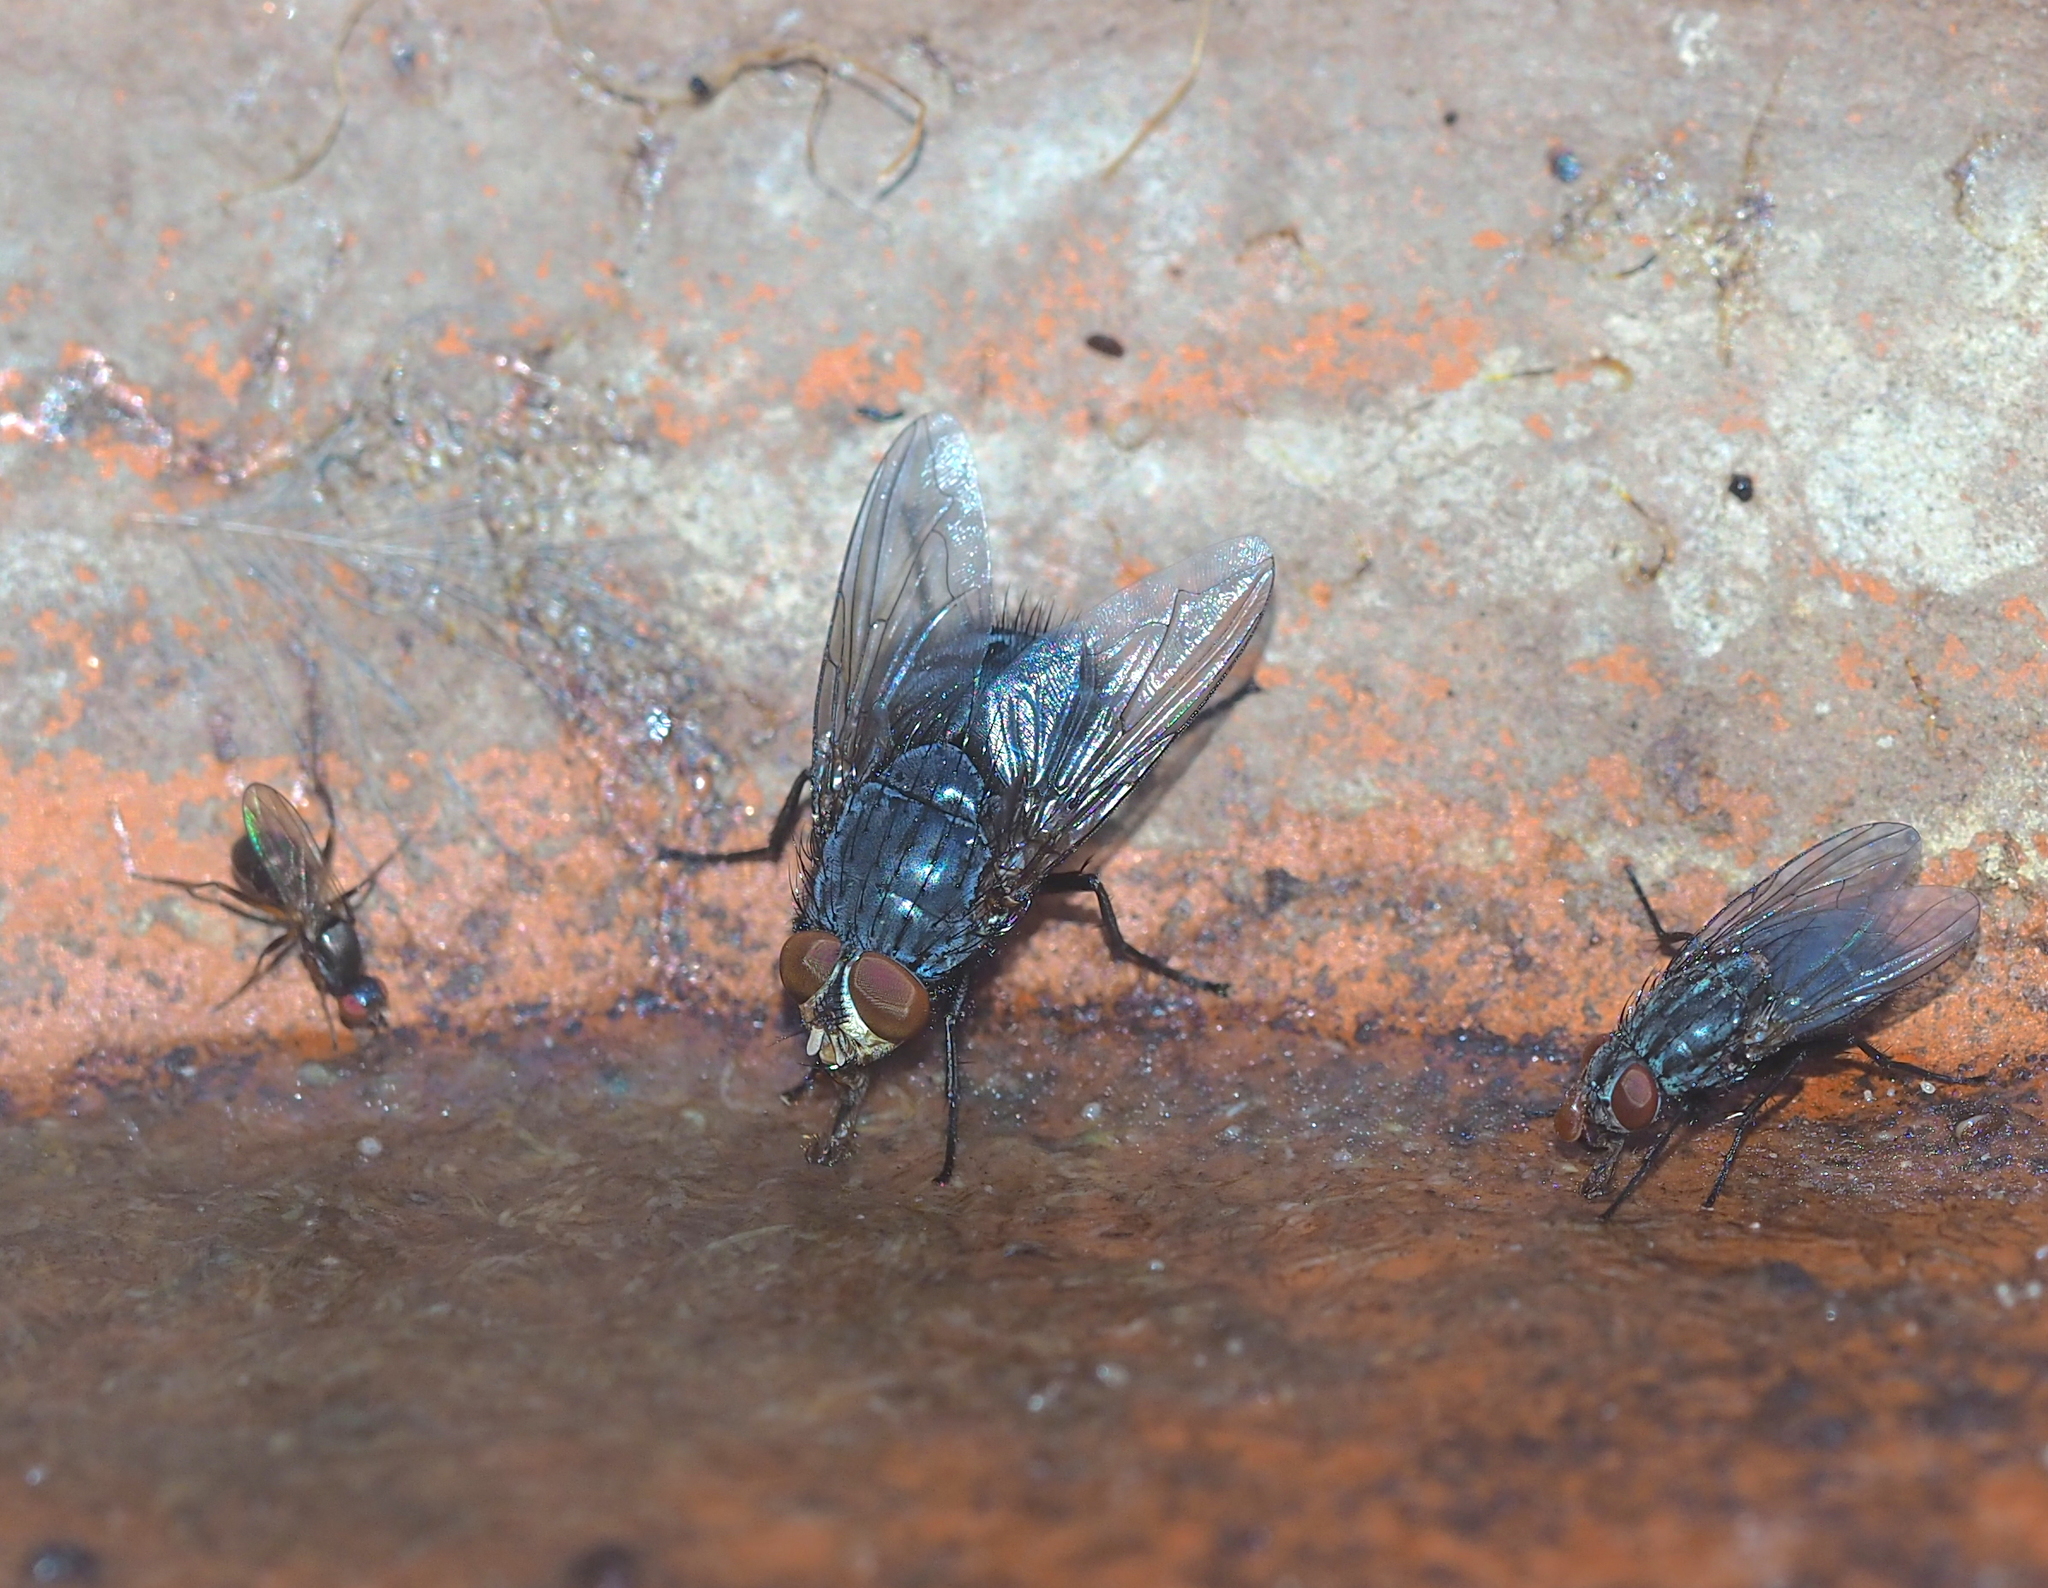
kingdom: Animalia
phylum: Arthropoda
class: Insecta
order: Diptera
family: Calliphoridae
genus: Calliphora
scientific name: Calliphora vicina
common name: Common blow flie
